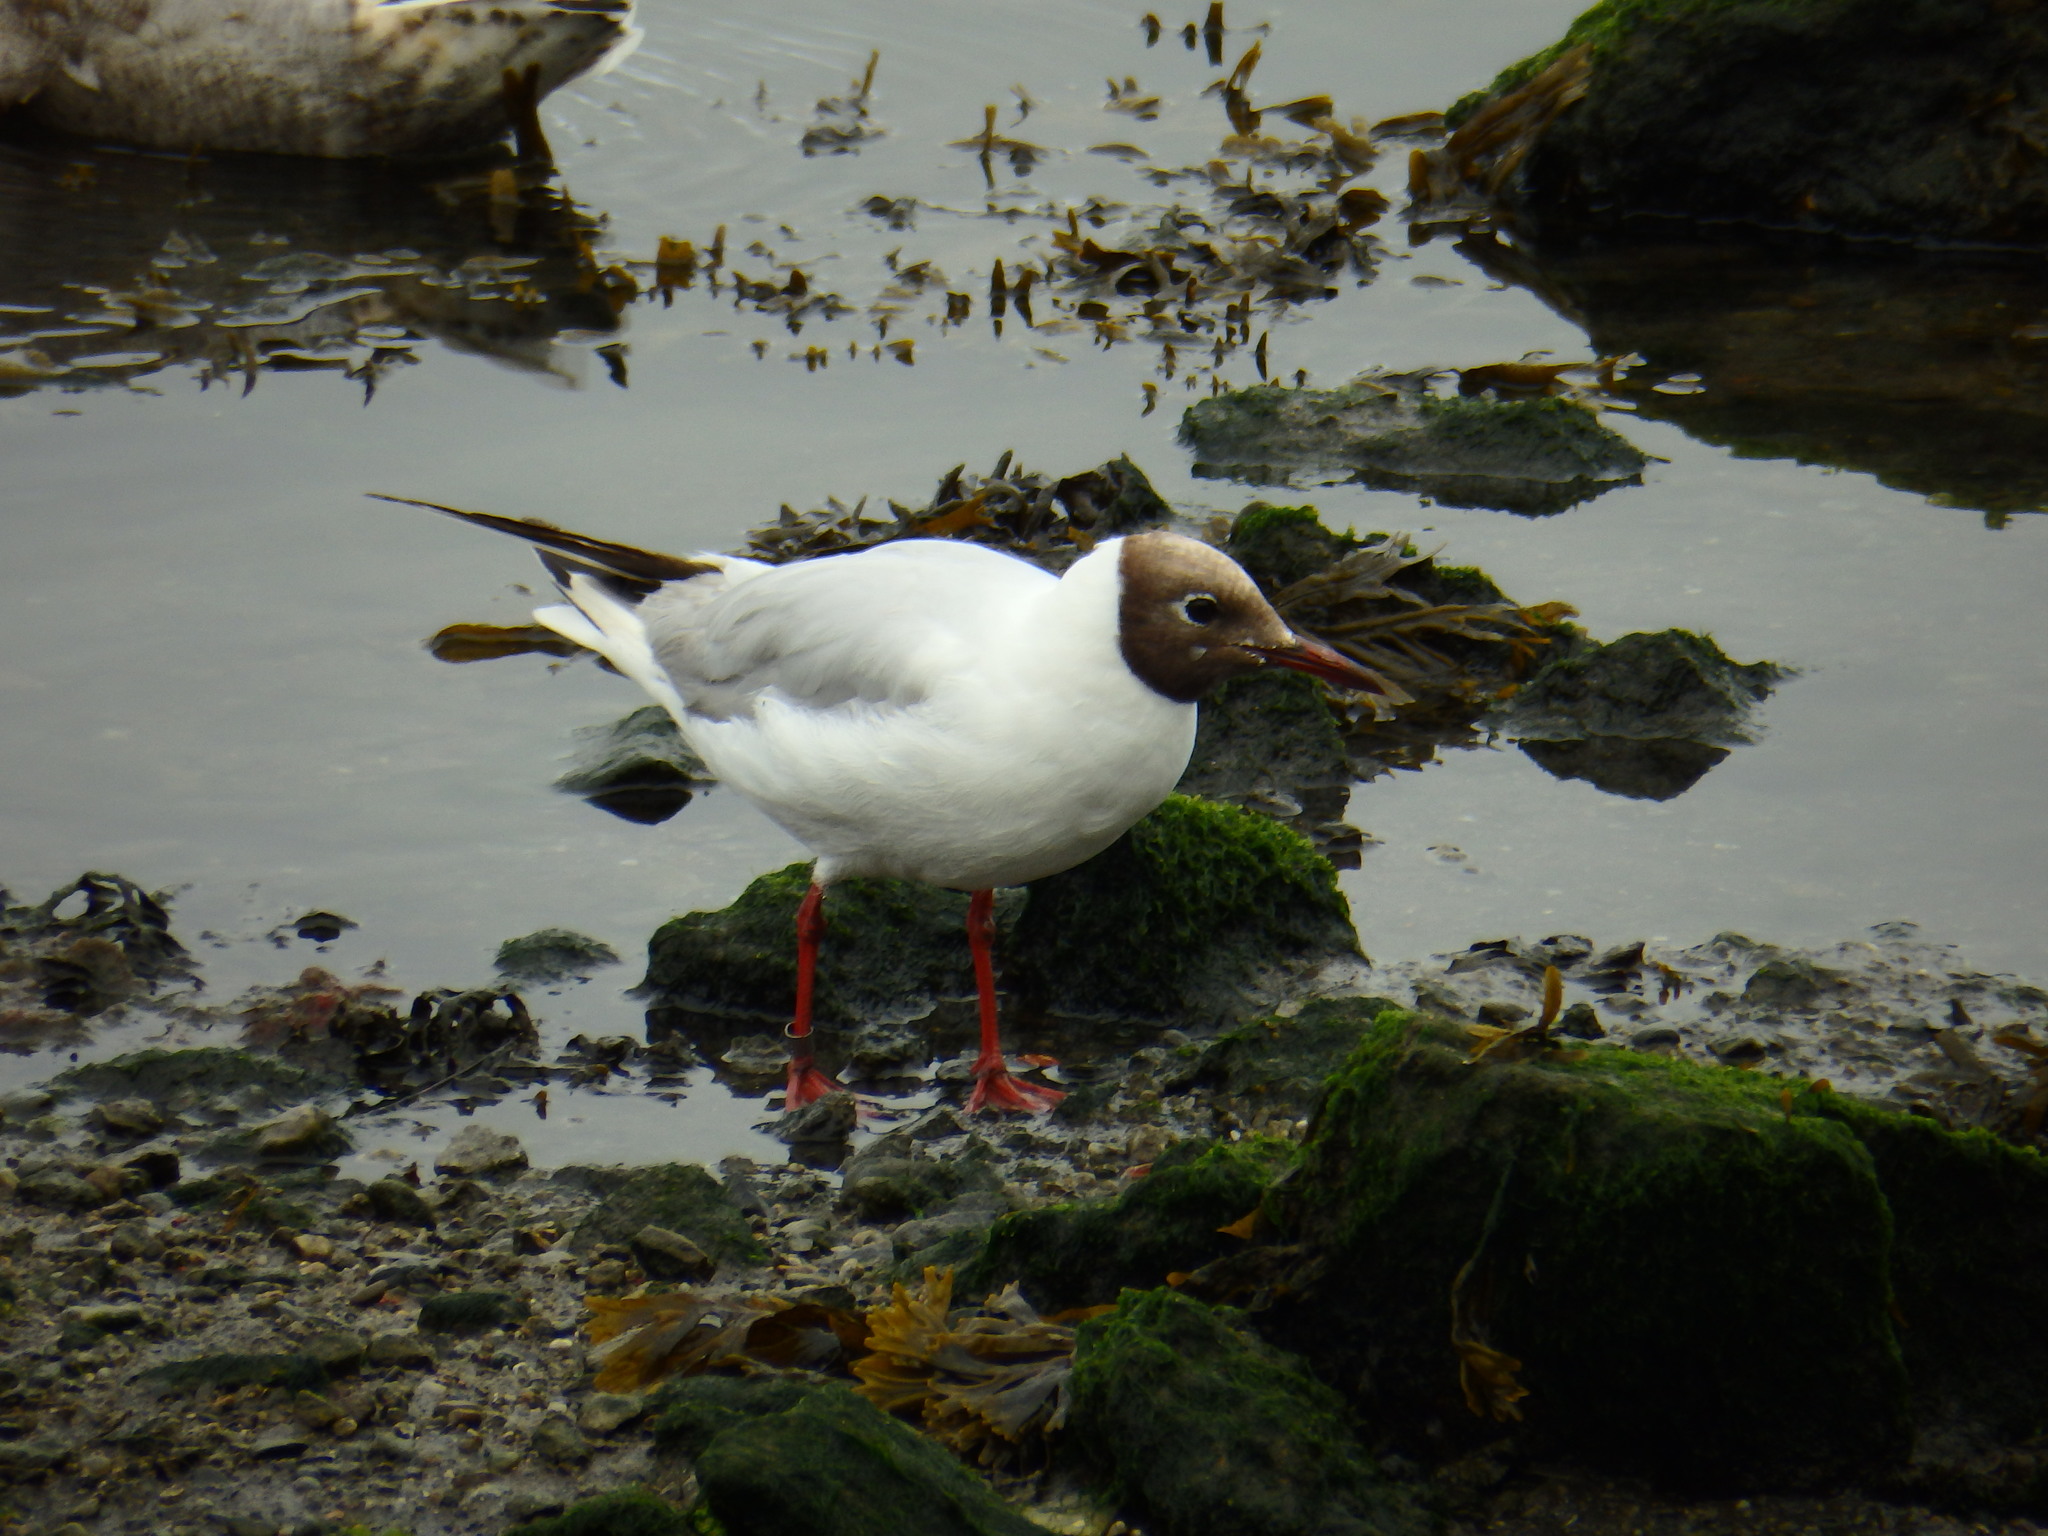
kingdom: Animalia
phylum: Chordata
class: Aves
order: Charadriiformes
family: Laridae
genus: Chroicocephalus
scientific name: Chroicocephalus ridibundus
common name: Black-headed gull
